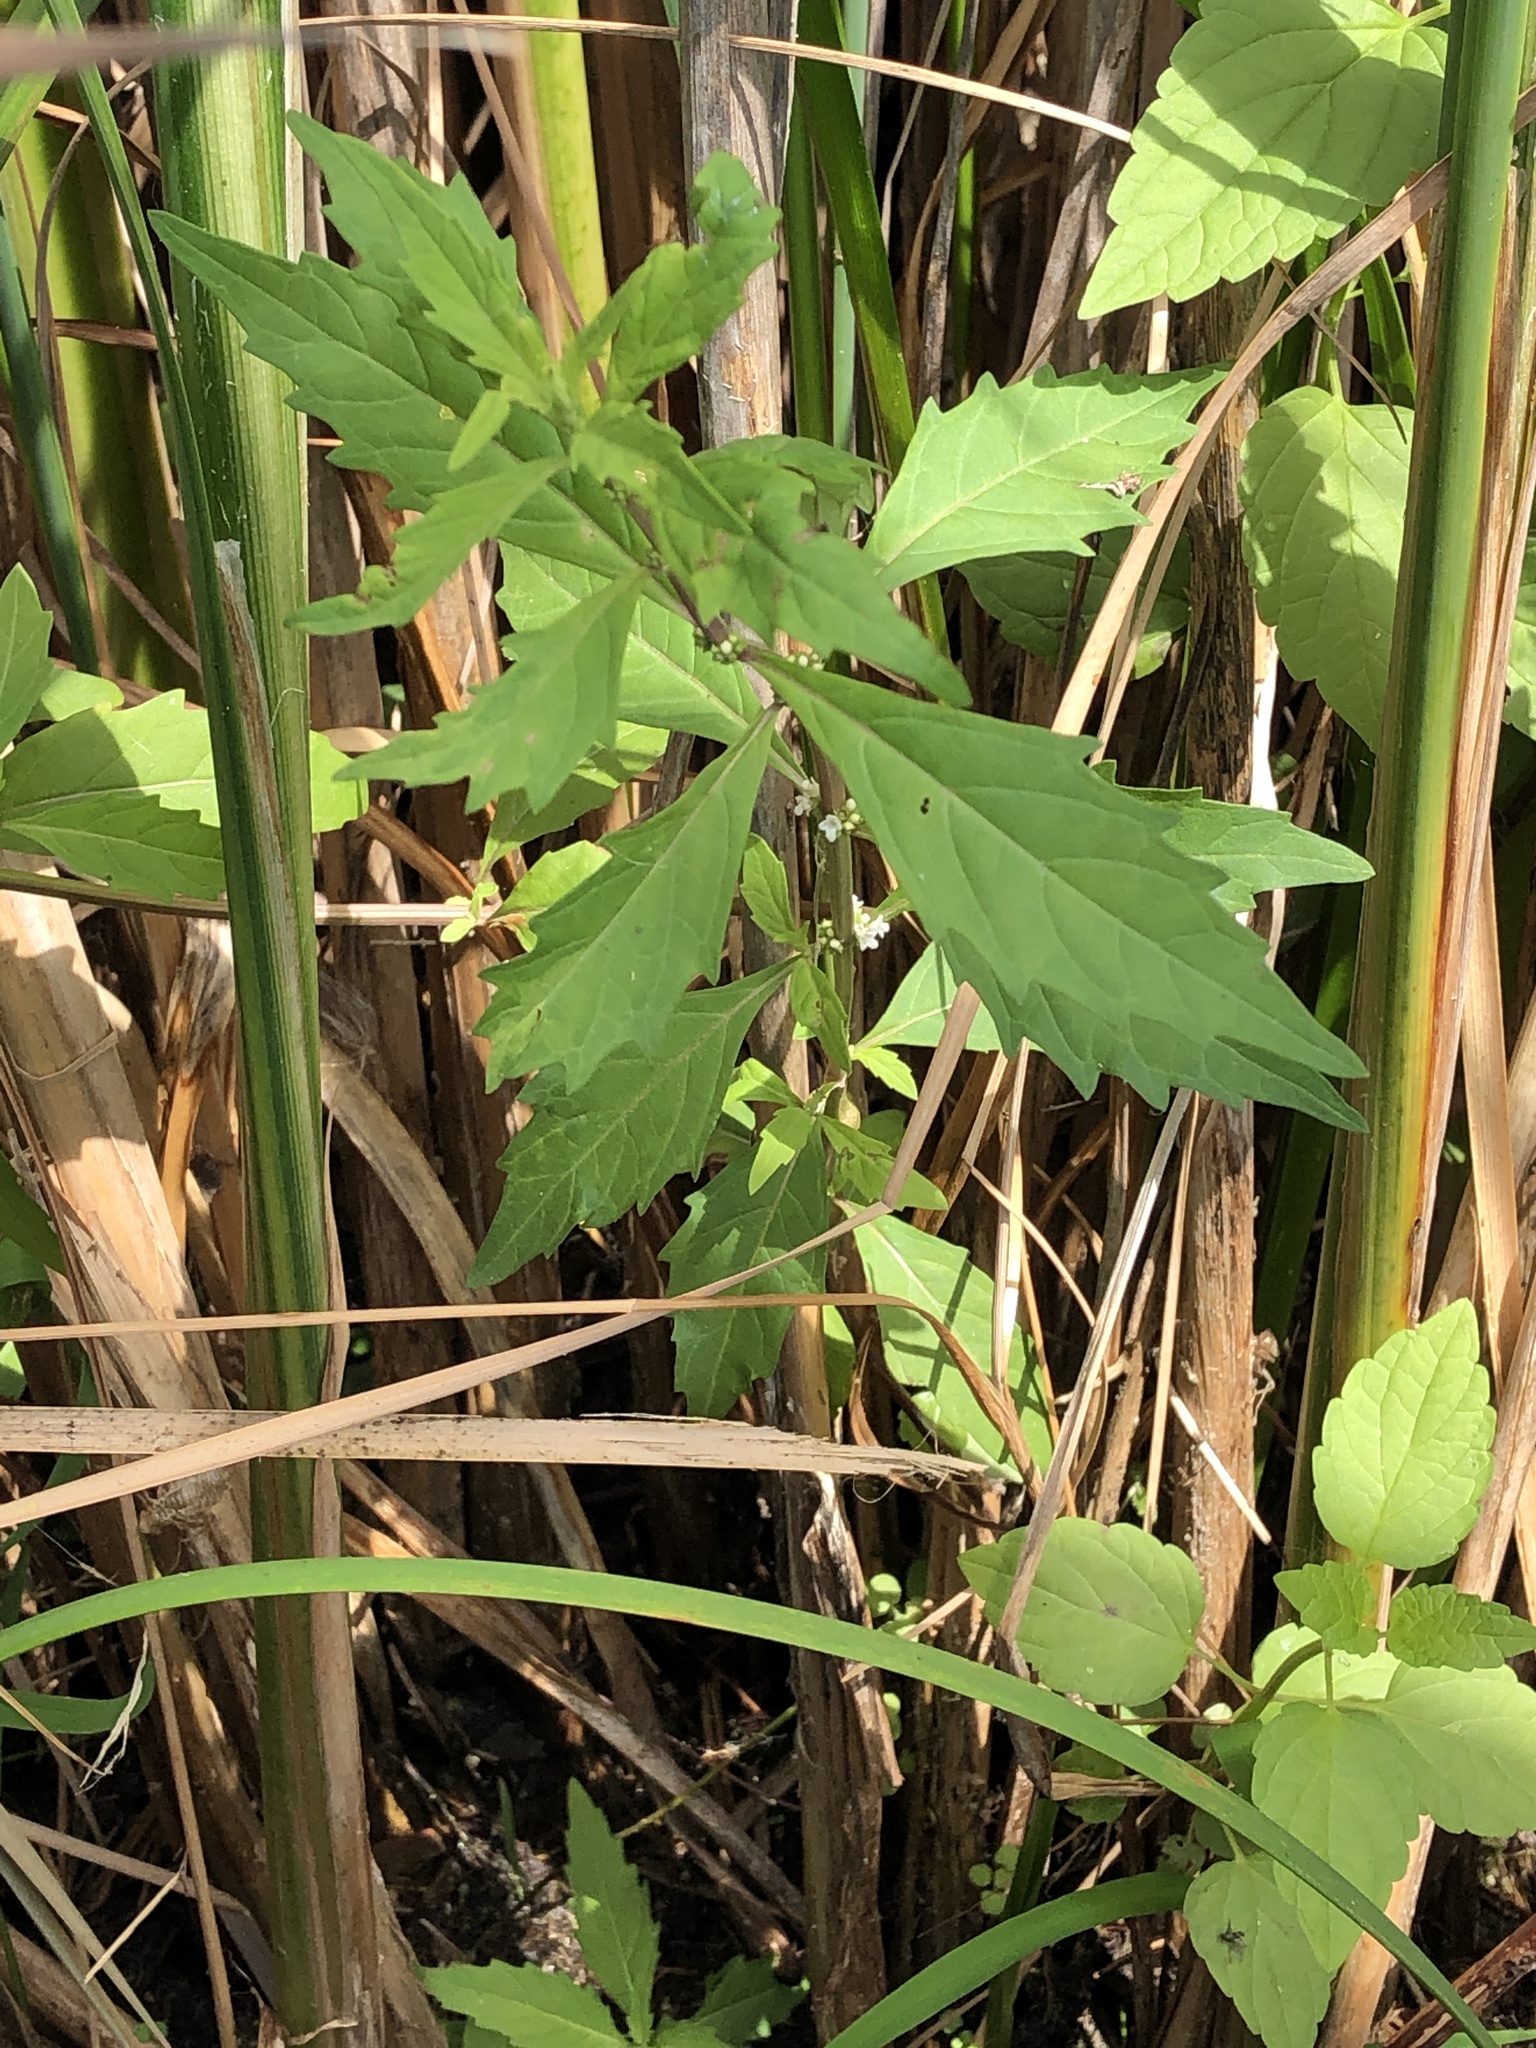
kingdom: Plantae
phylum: Tracheophyta
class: Magnoliopsida
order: Lamiales
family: Lamiaceae
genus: Lycopus
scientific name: Lycopus uniflorus
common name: Northern bugleweed
